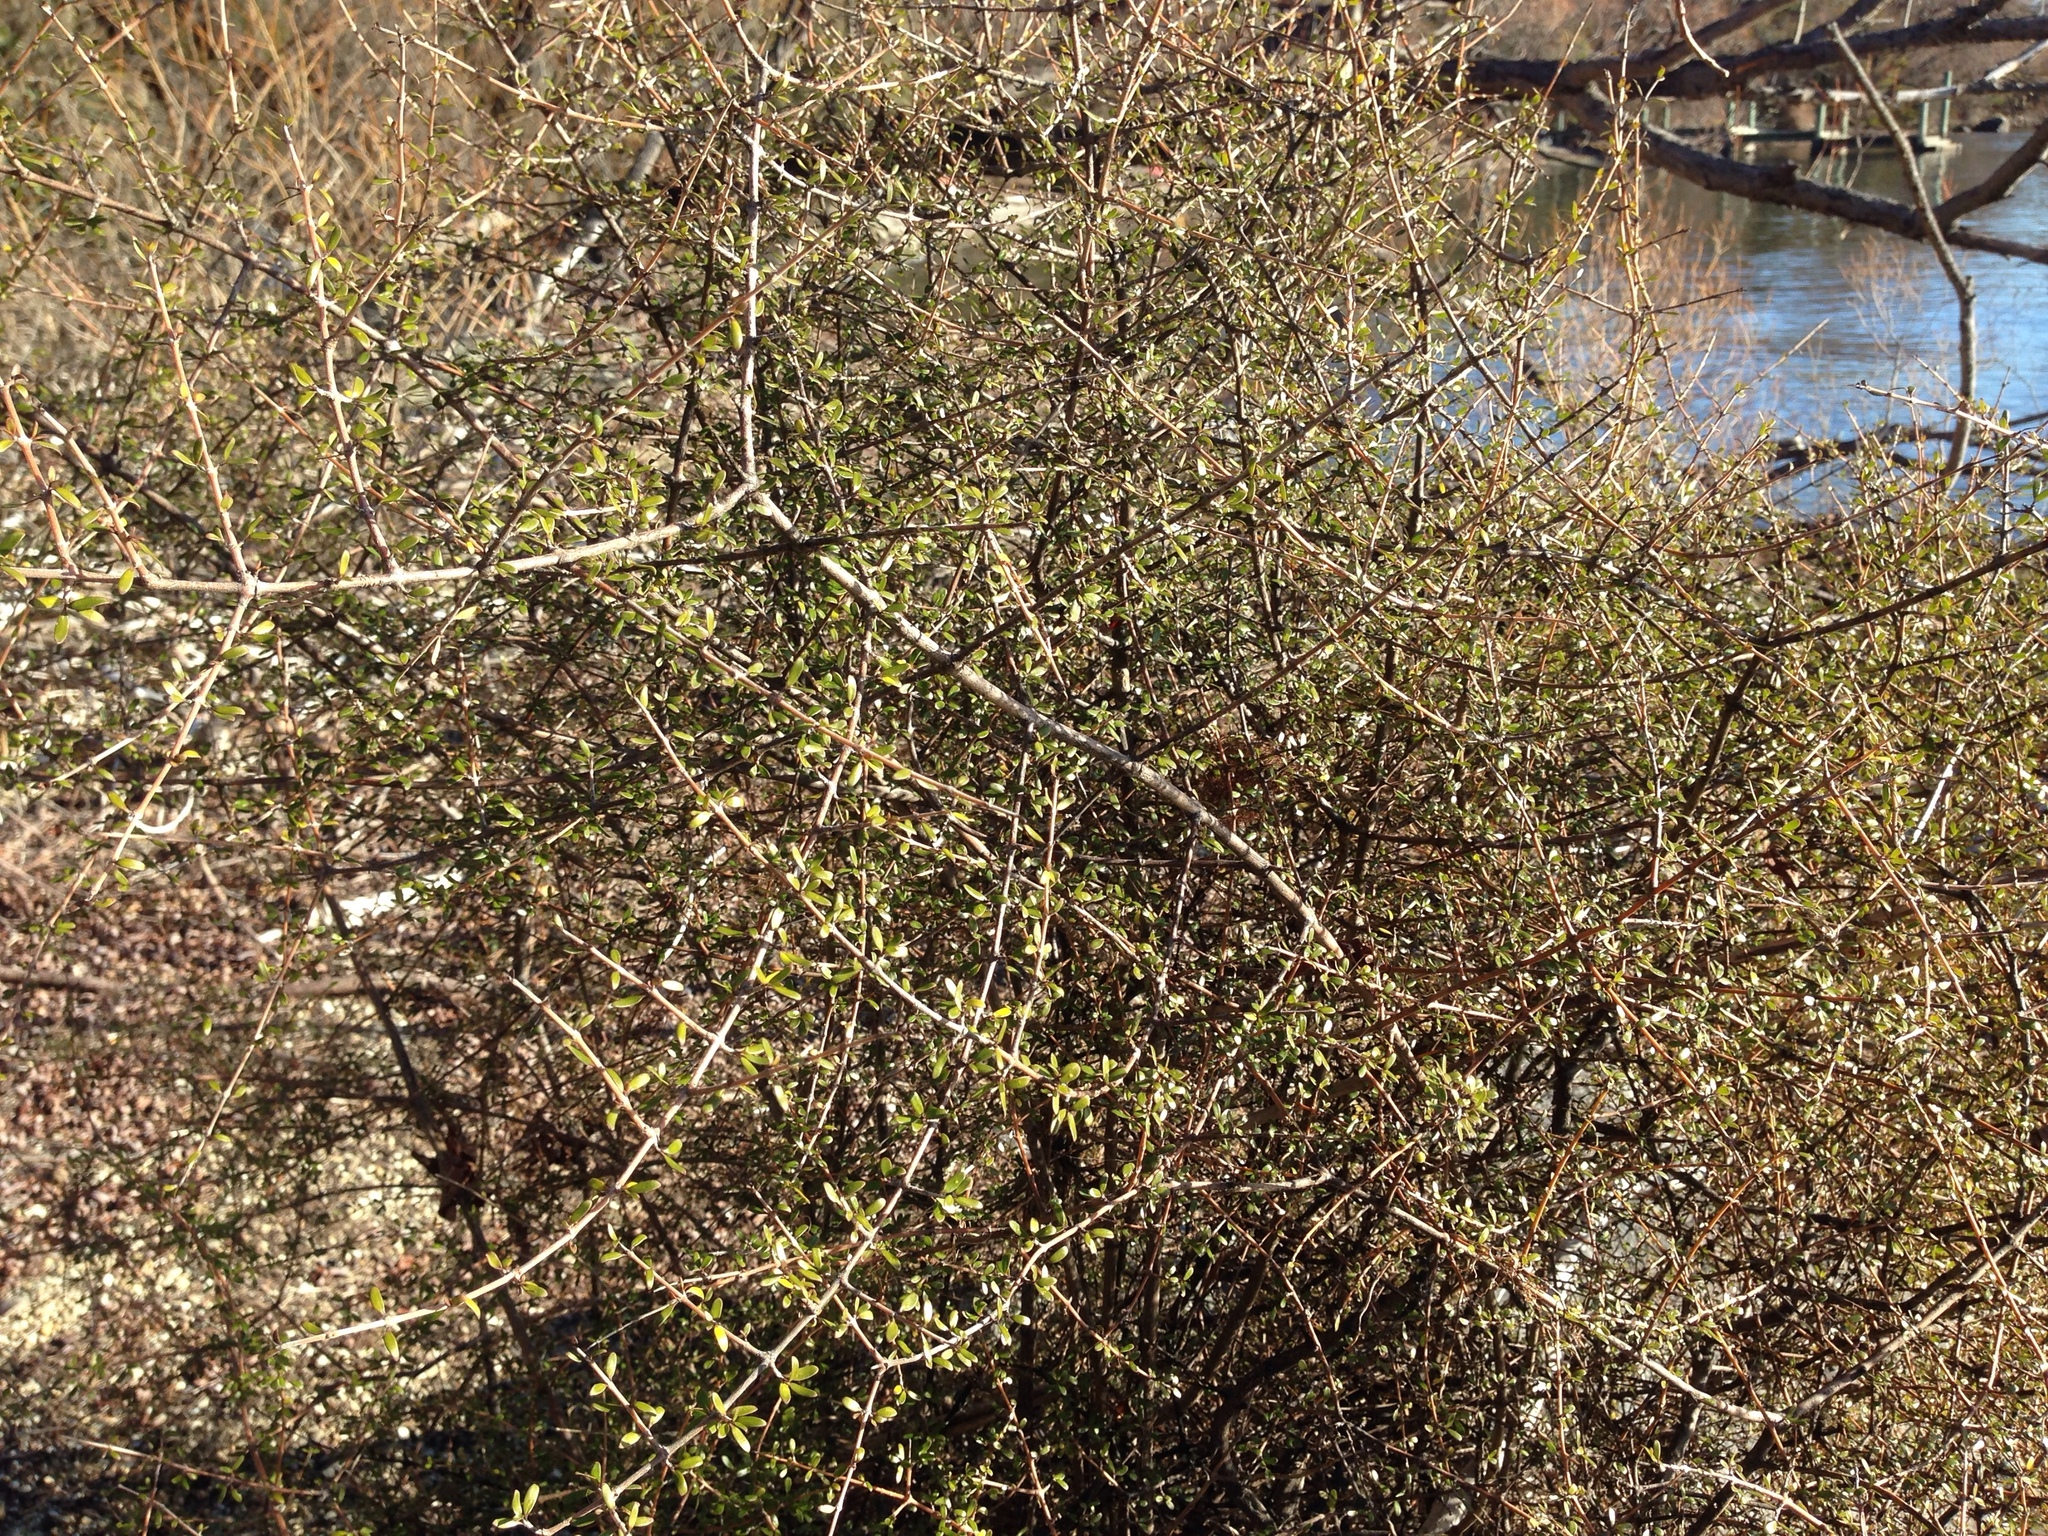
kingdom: Plantae
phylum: Tracheophyta
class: Magnoliopsida
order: Gentianales
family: Rubiaceae
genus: Coprosma
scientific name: Coprosma propinqua
